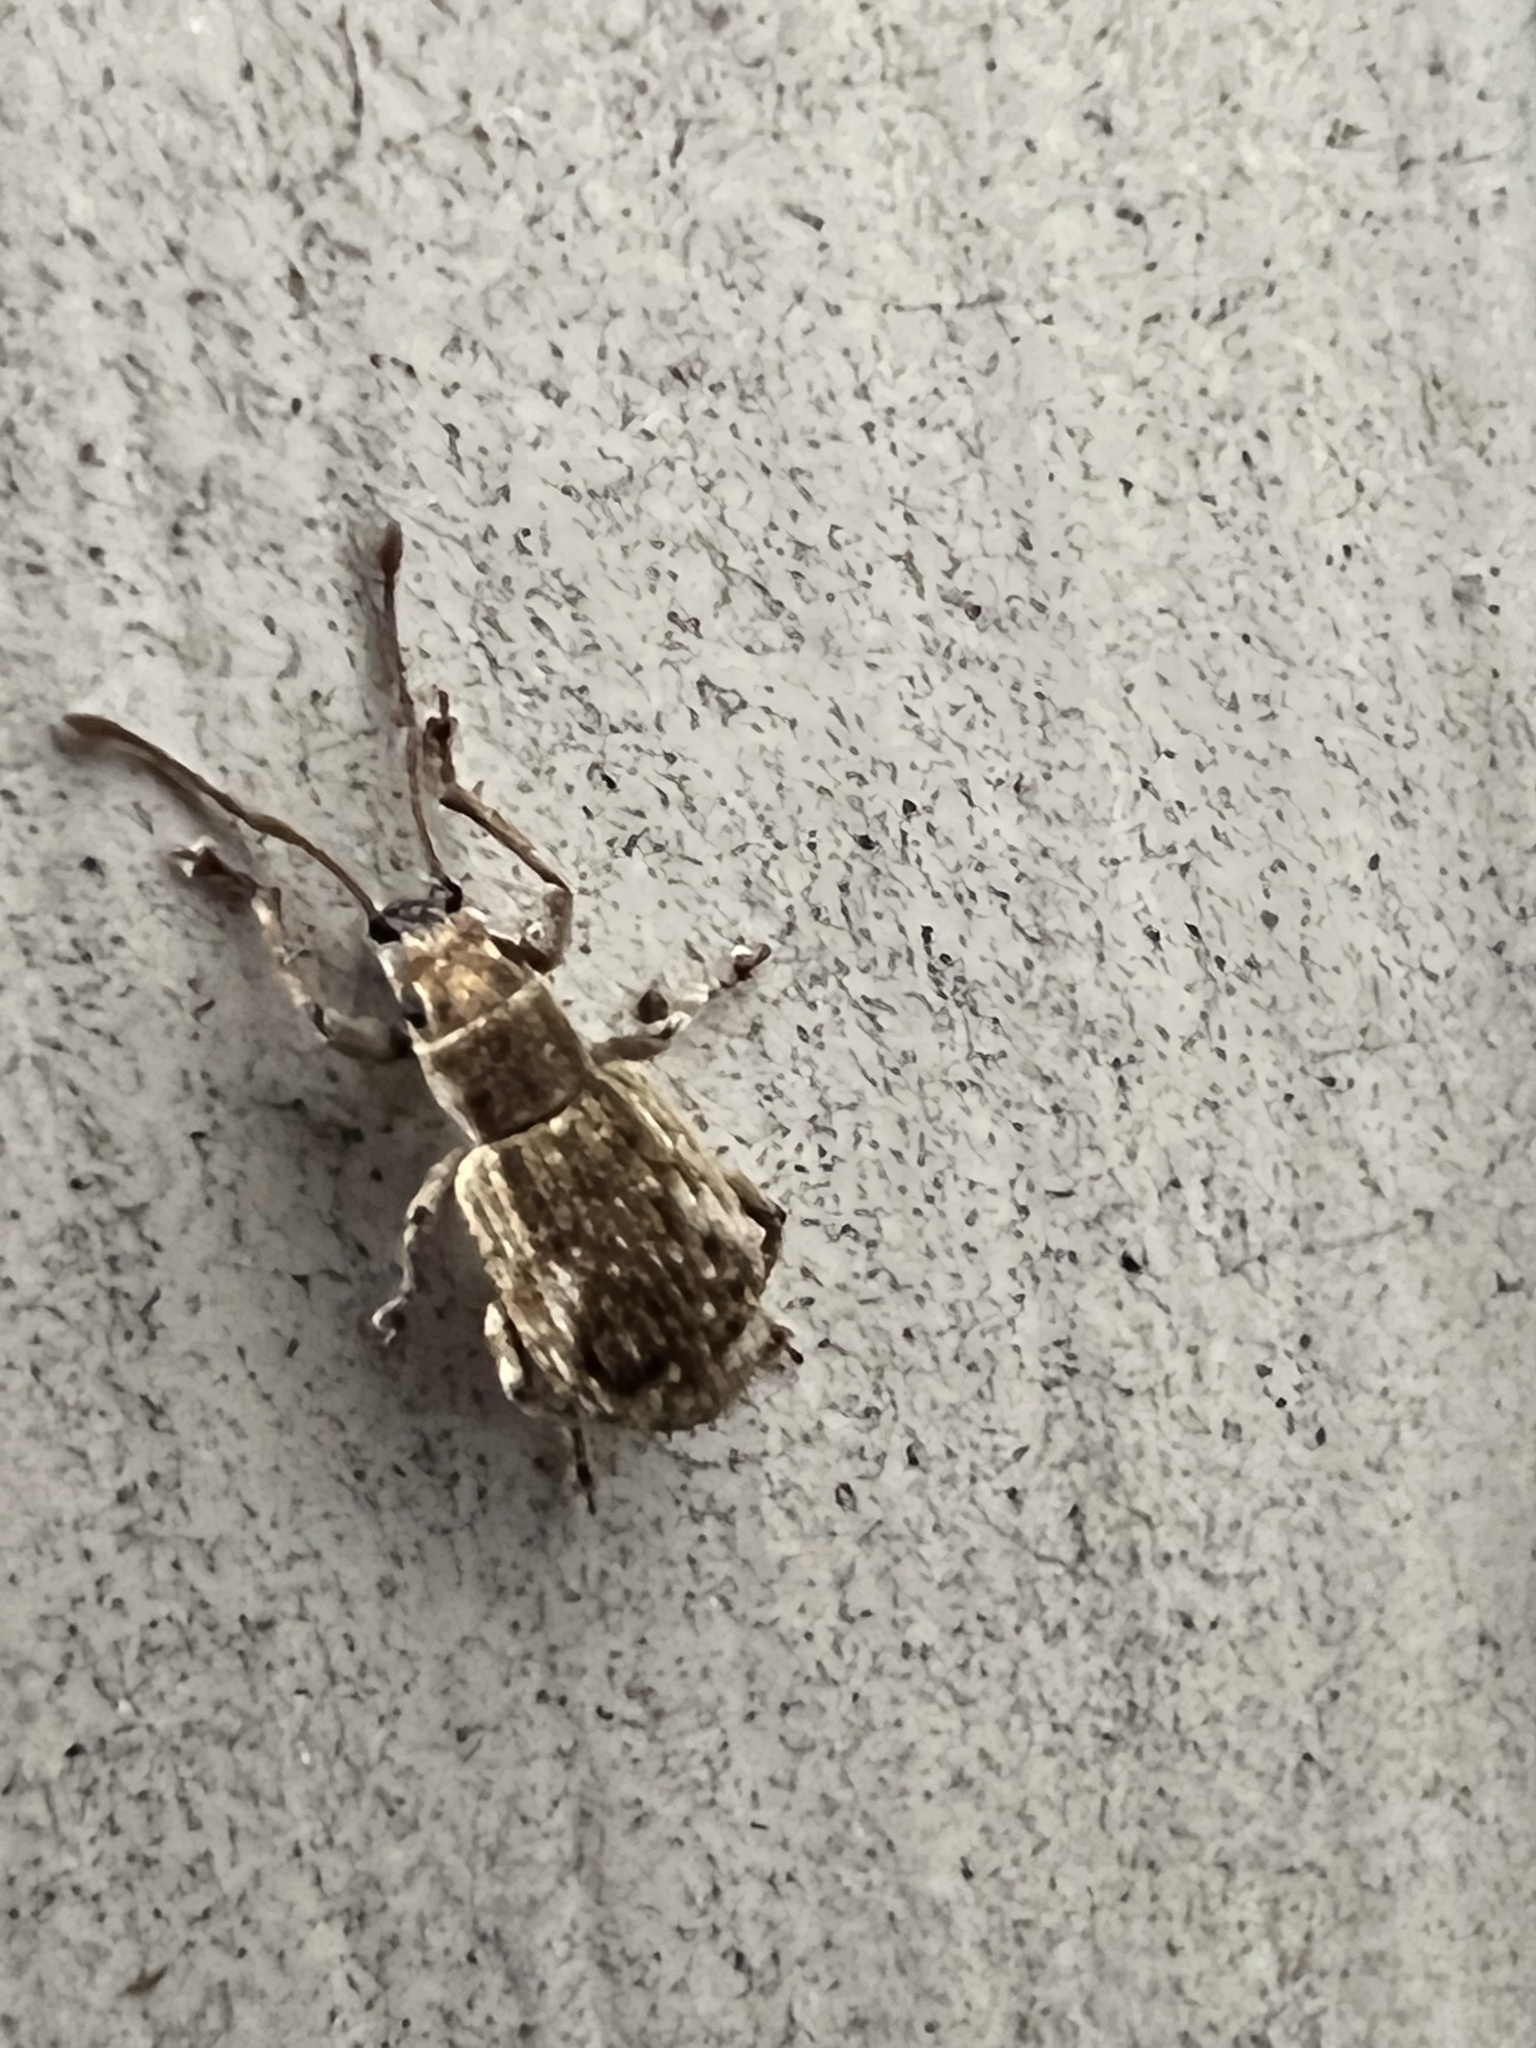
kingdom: Animalia
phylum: Arthropoda
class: Insecta
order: Coleoptera
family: Curculionidae
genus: Pseudoedophrys
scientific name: Pseudoedophrys hilleri
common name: Weevil
